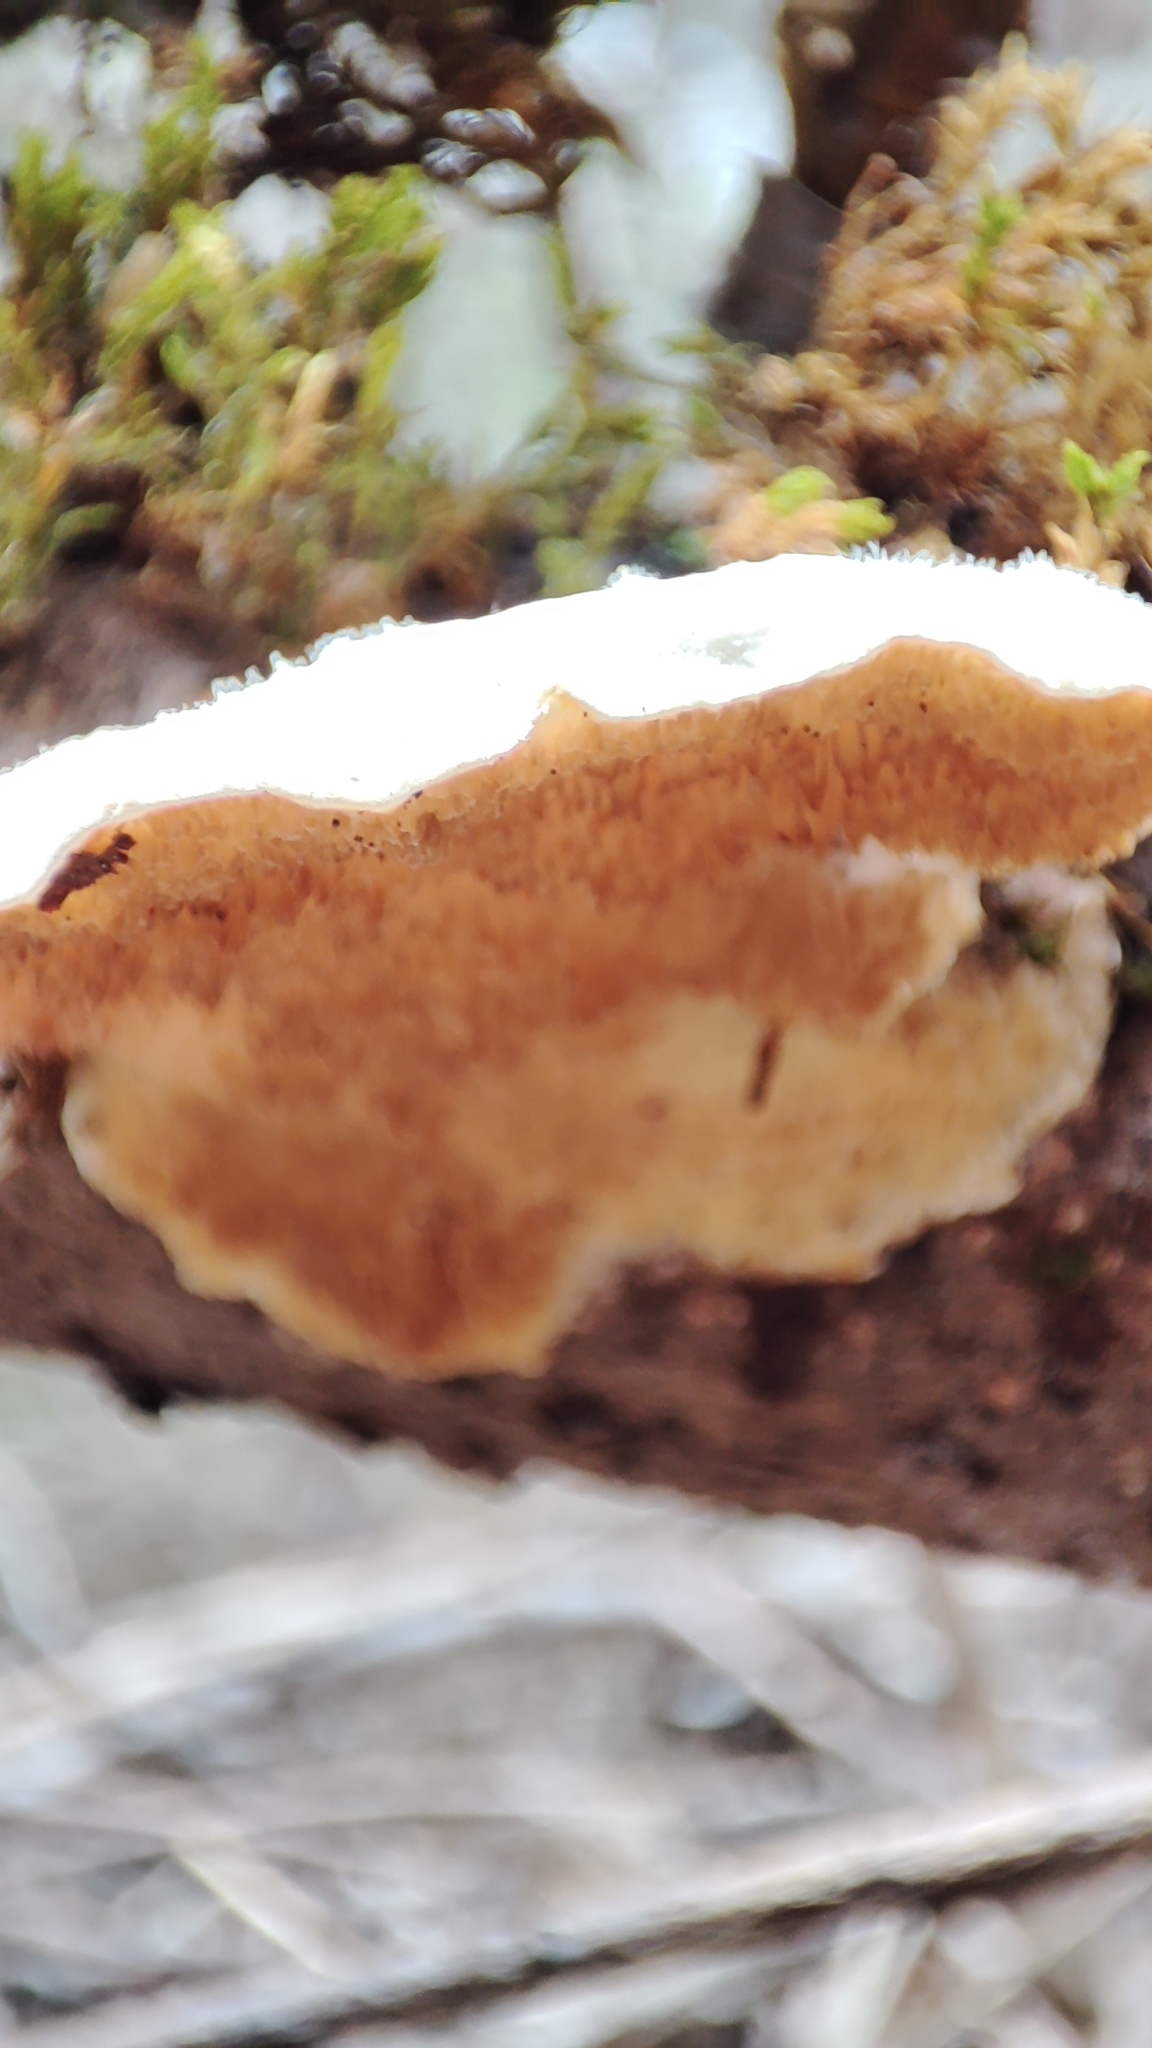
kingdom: Fungi
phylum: Basidiomycota
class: Agaricomycetes
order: Polyporales
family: Polyporaceae
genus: Trametes
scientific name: Trametes suaveolens
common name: Fragrant bracket
